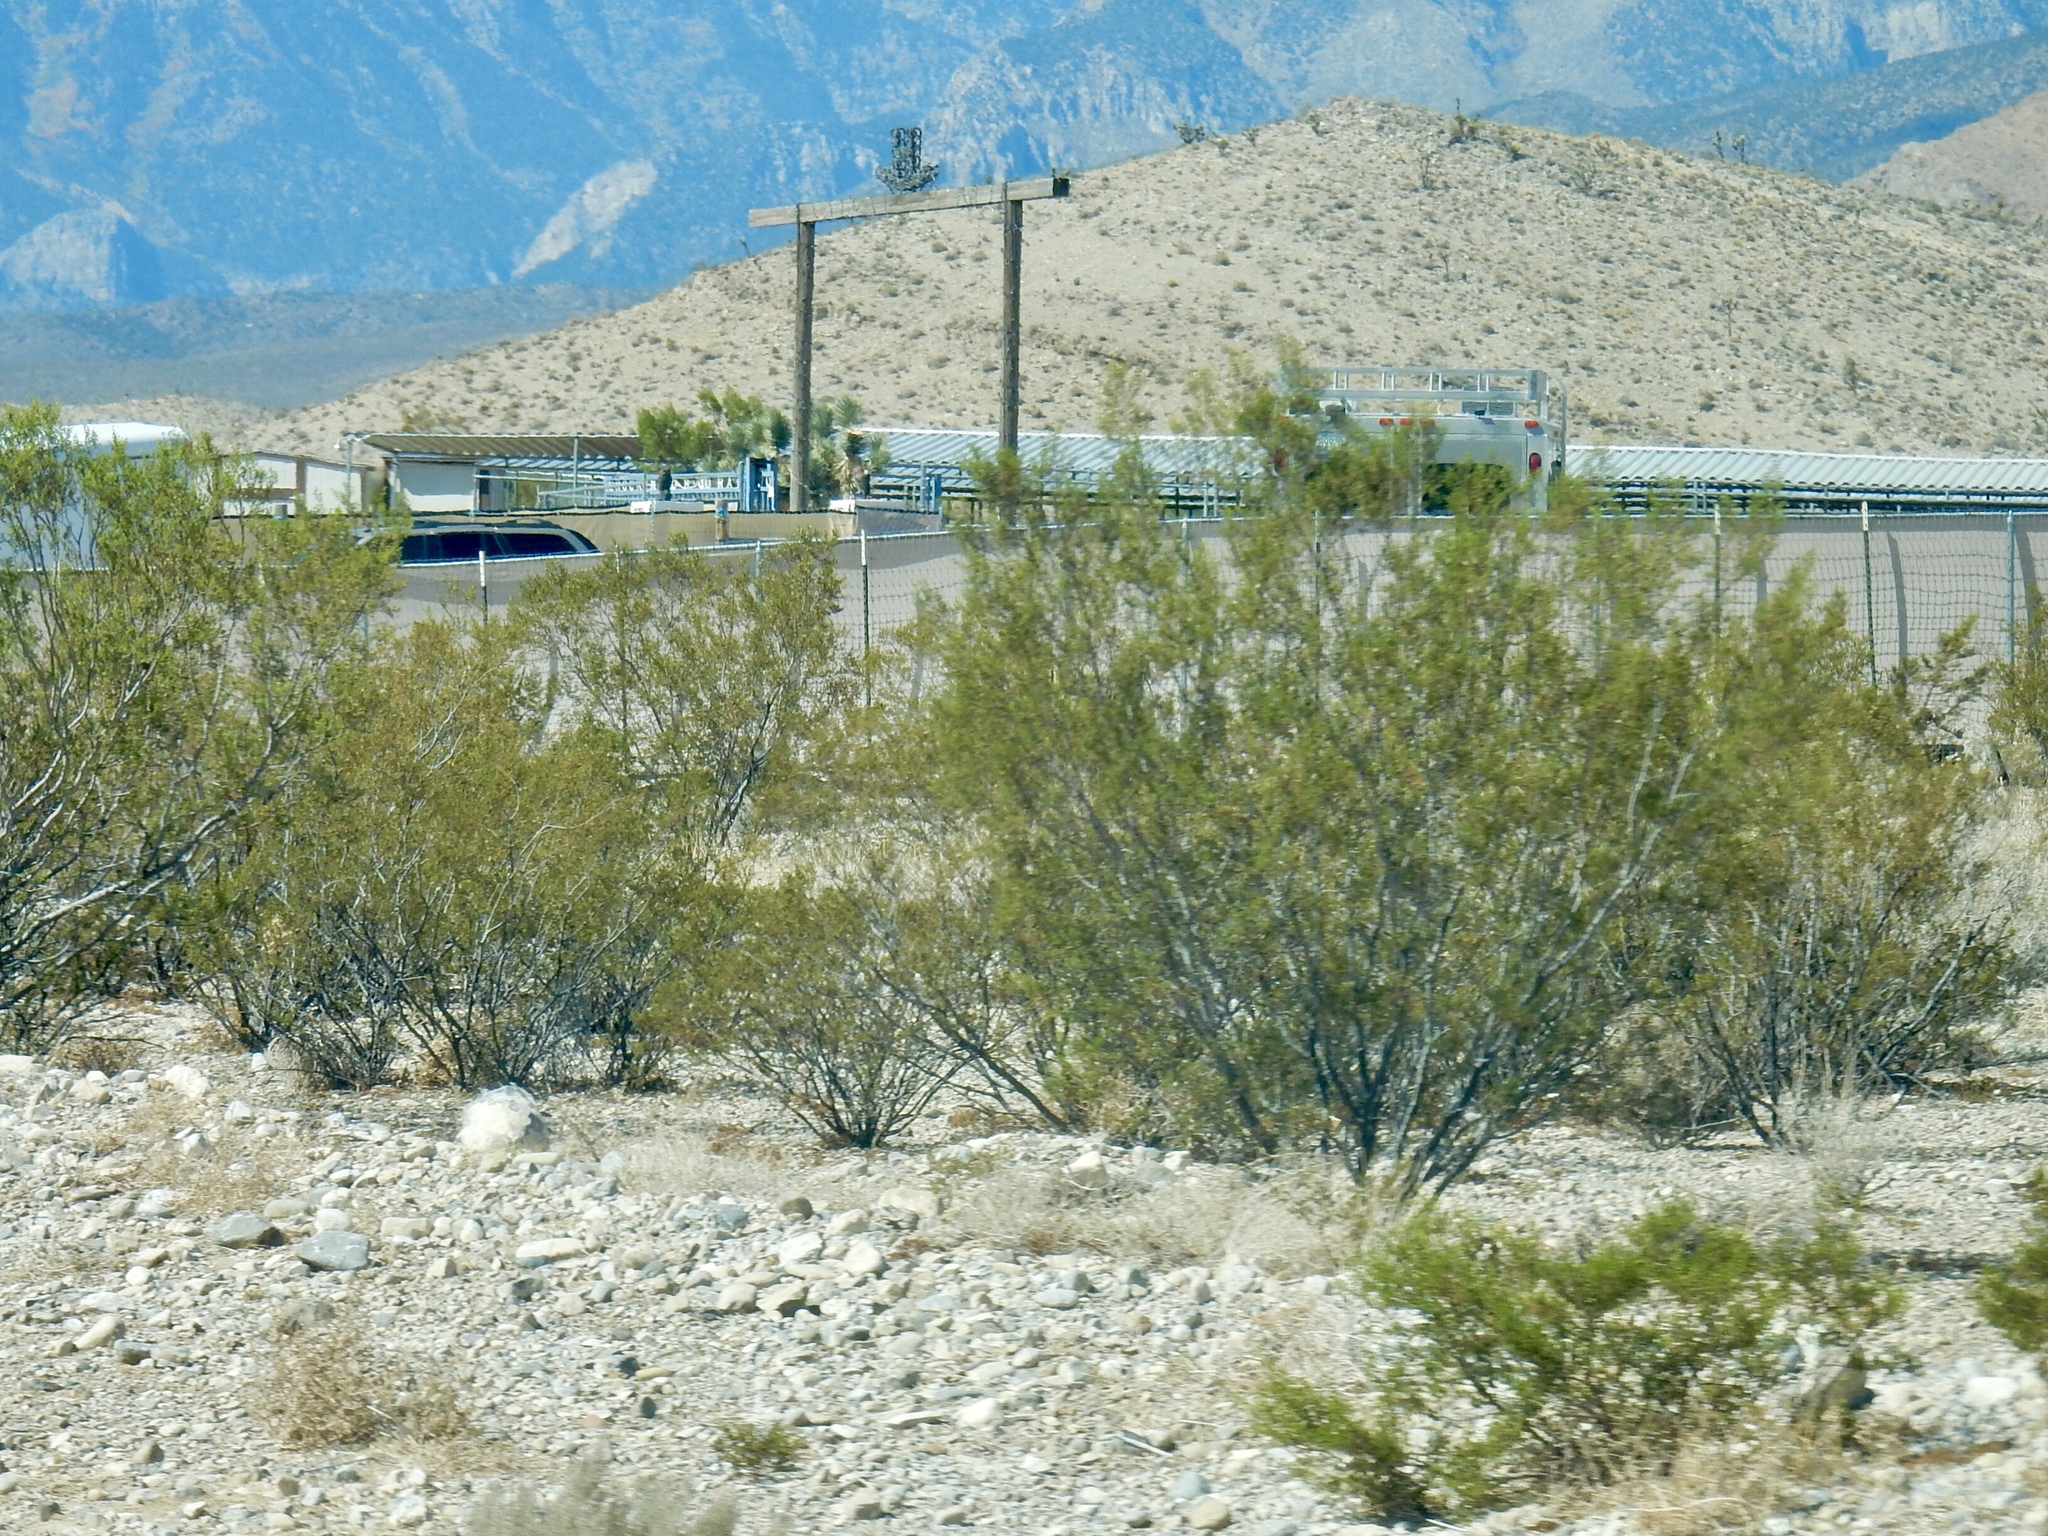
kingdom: Plantae
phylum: Tracheophyta
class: Magnoliopsida
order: Zygophyllales
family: Zygophyllaceae
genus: Larrea
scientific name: Larrea tridentata
